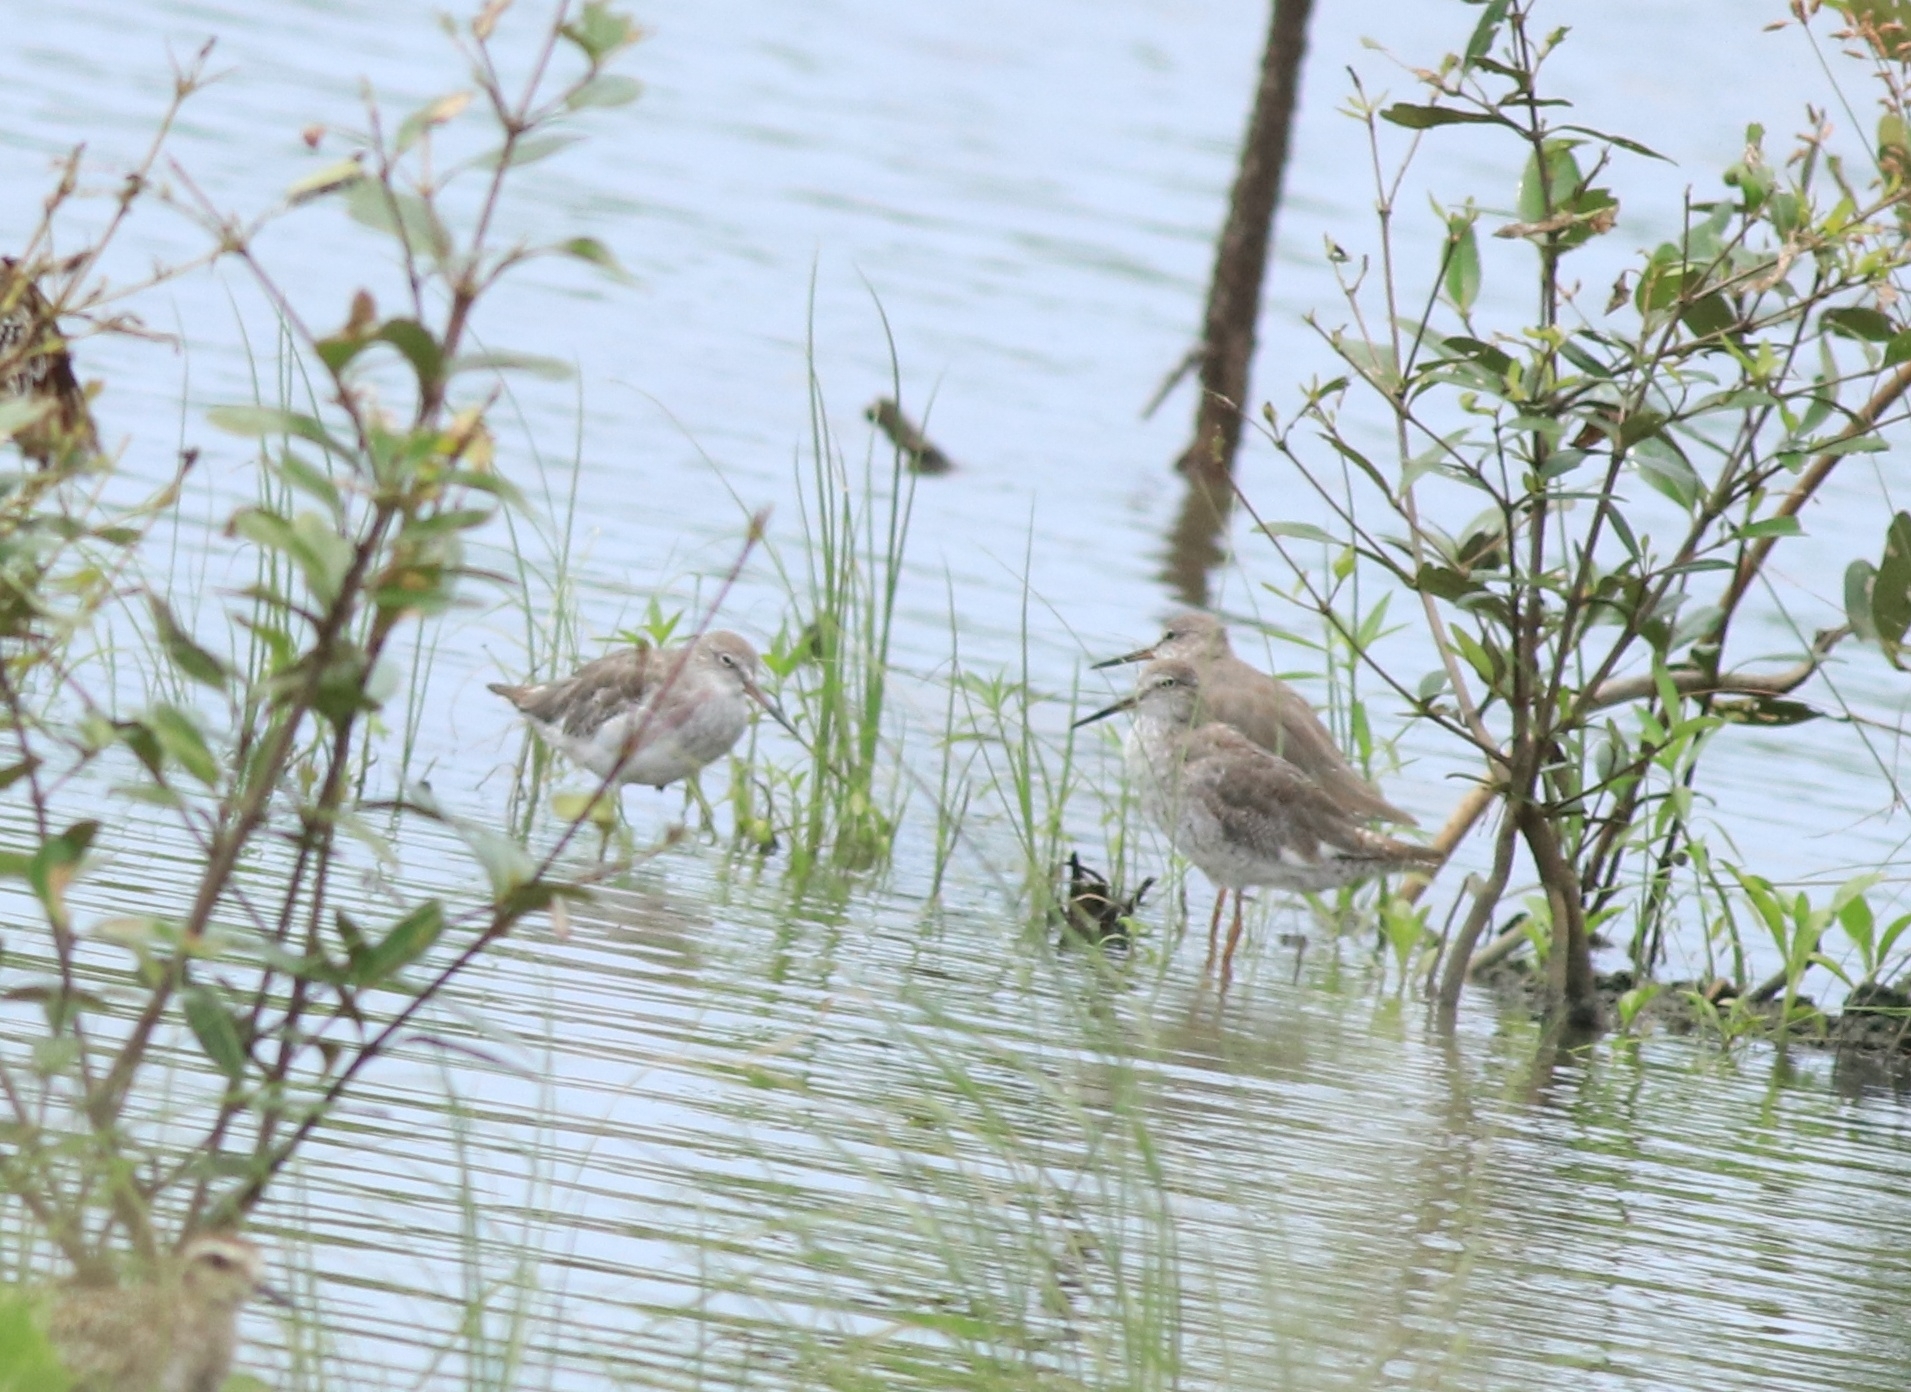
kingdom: Animalia
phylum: Chordata
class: Aves
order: Charadriiformes
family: Scolopacidae
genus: Tringa
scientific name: Tringa totanus
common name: Common redshank
